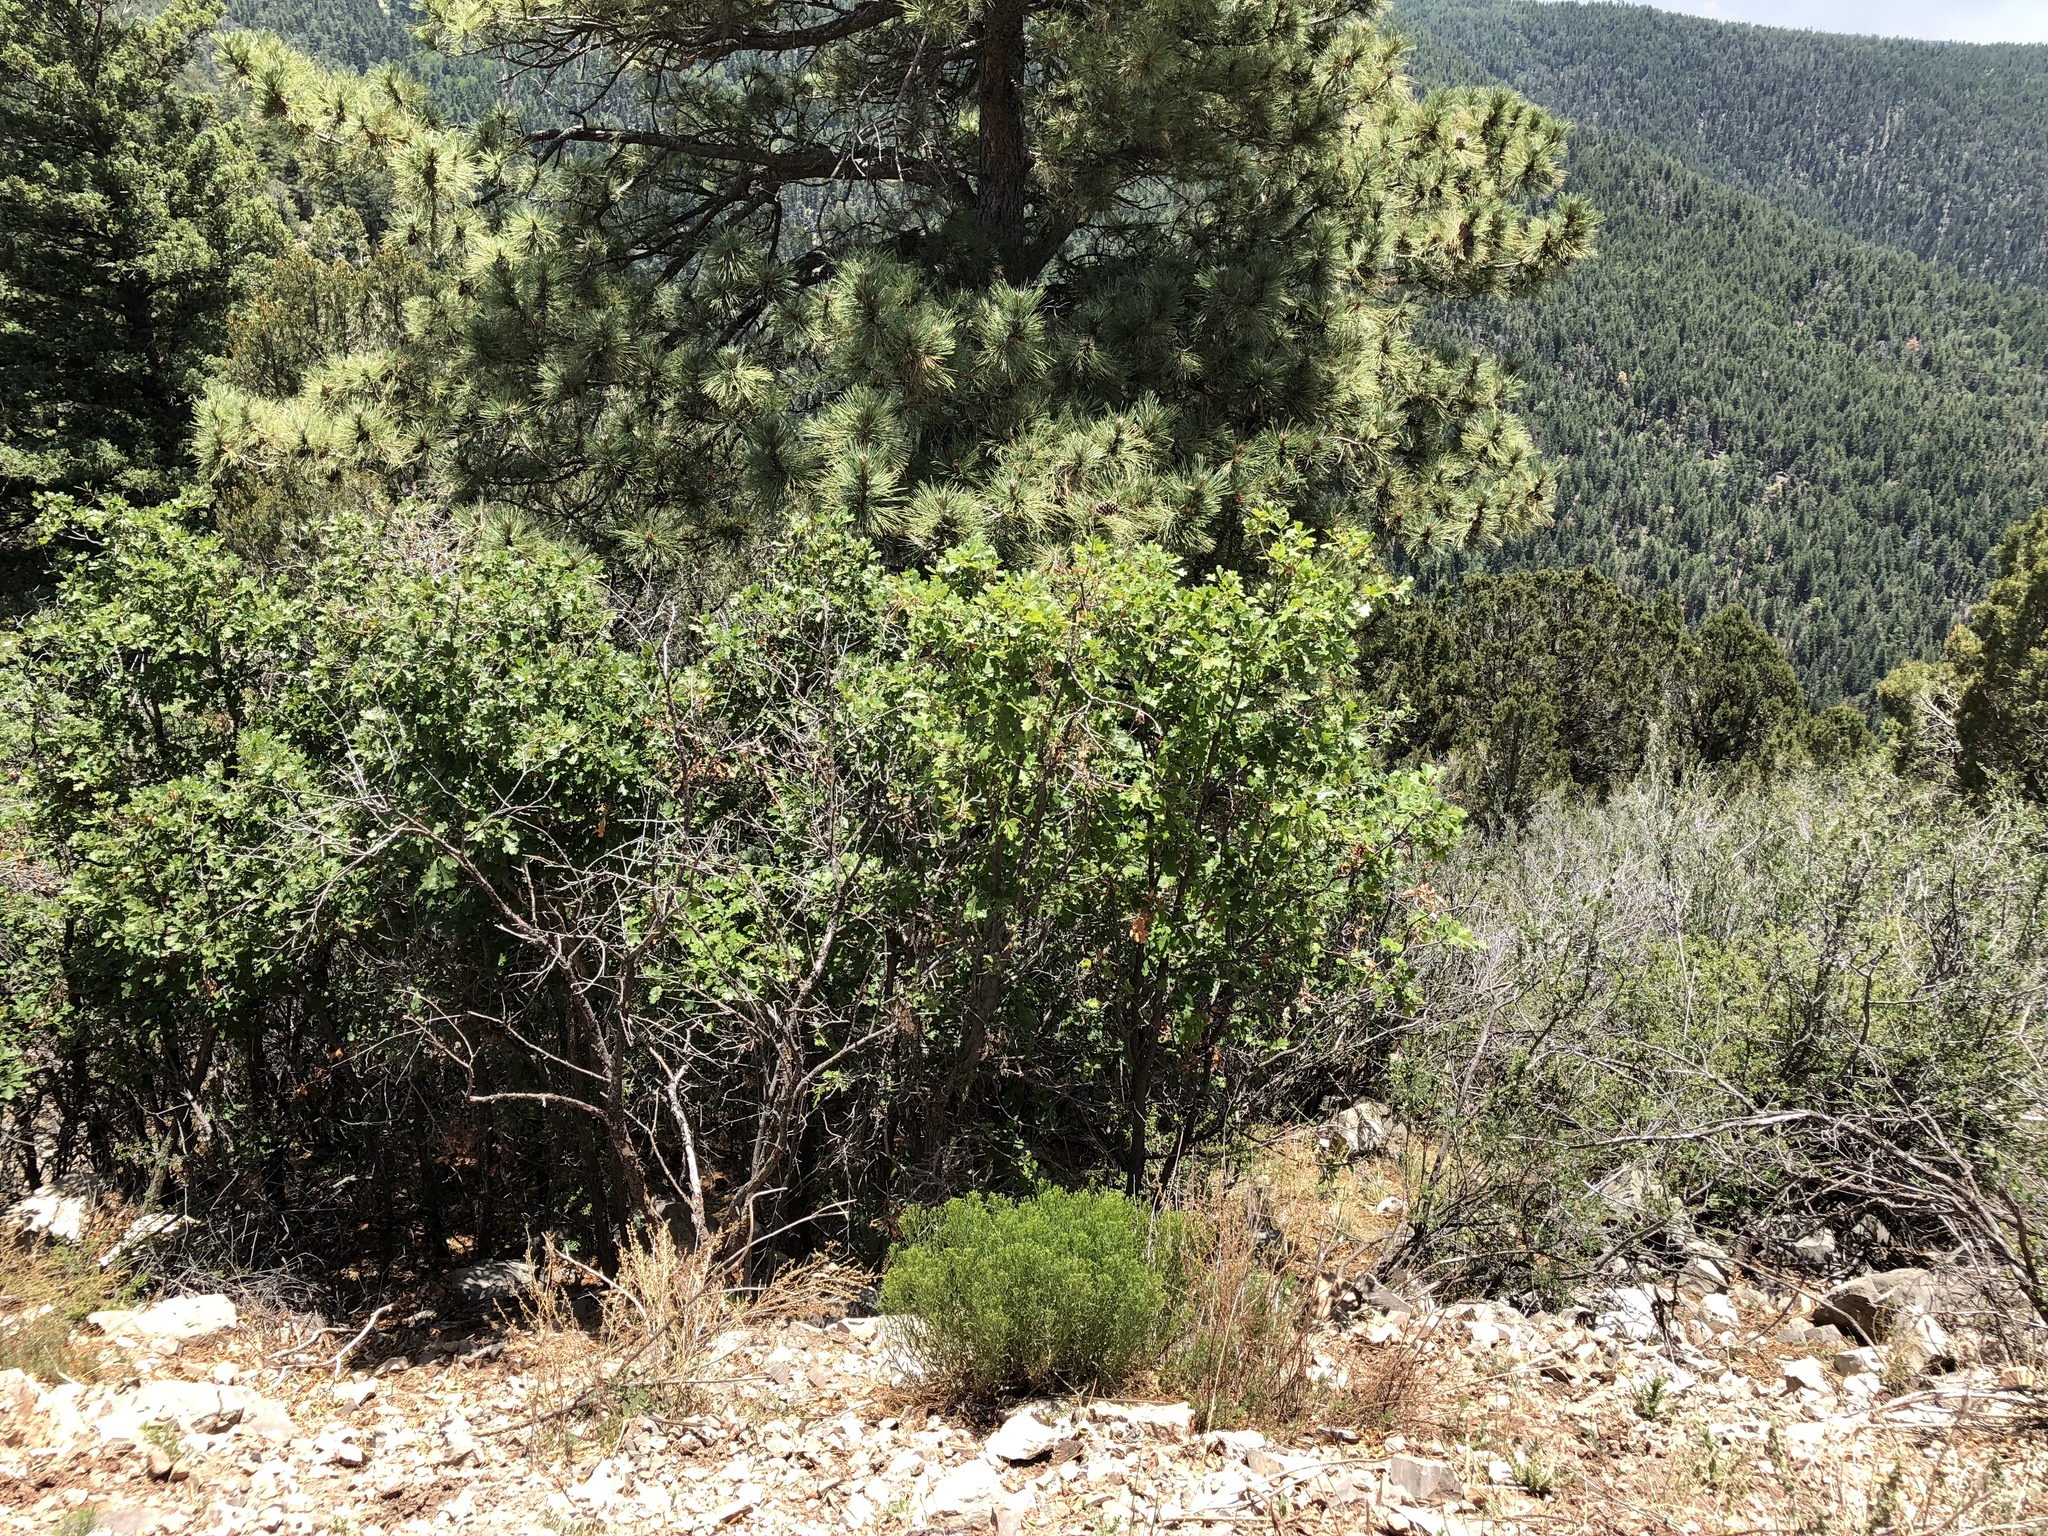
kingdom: Plantae
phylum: Tracheophyta
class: Magnoliopsida
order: Fagales
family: Fagaceae
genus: Quercus
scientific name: Quercus gambelii
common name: Gambel oak
